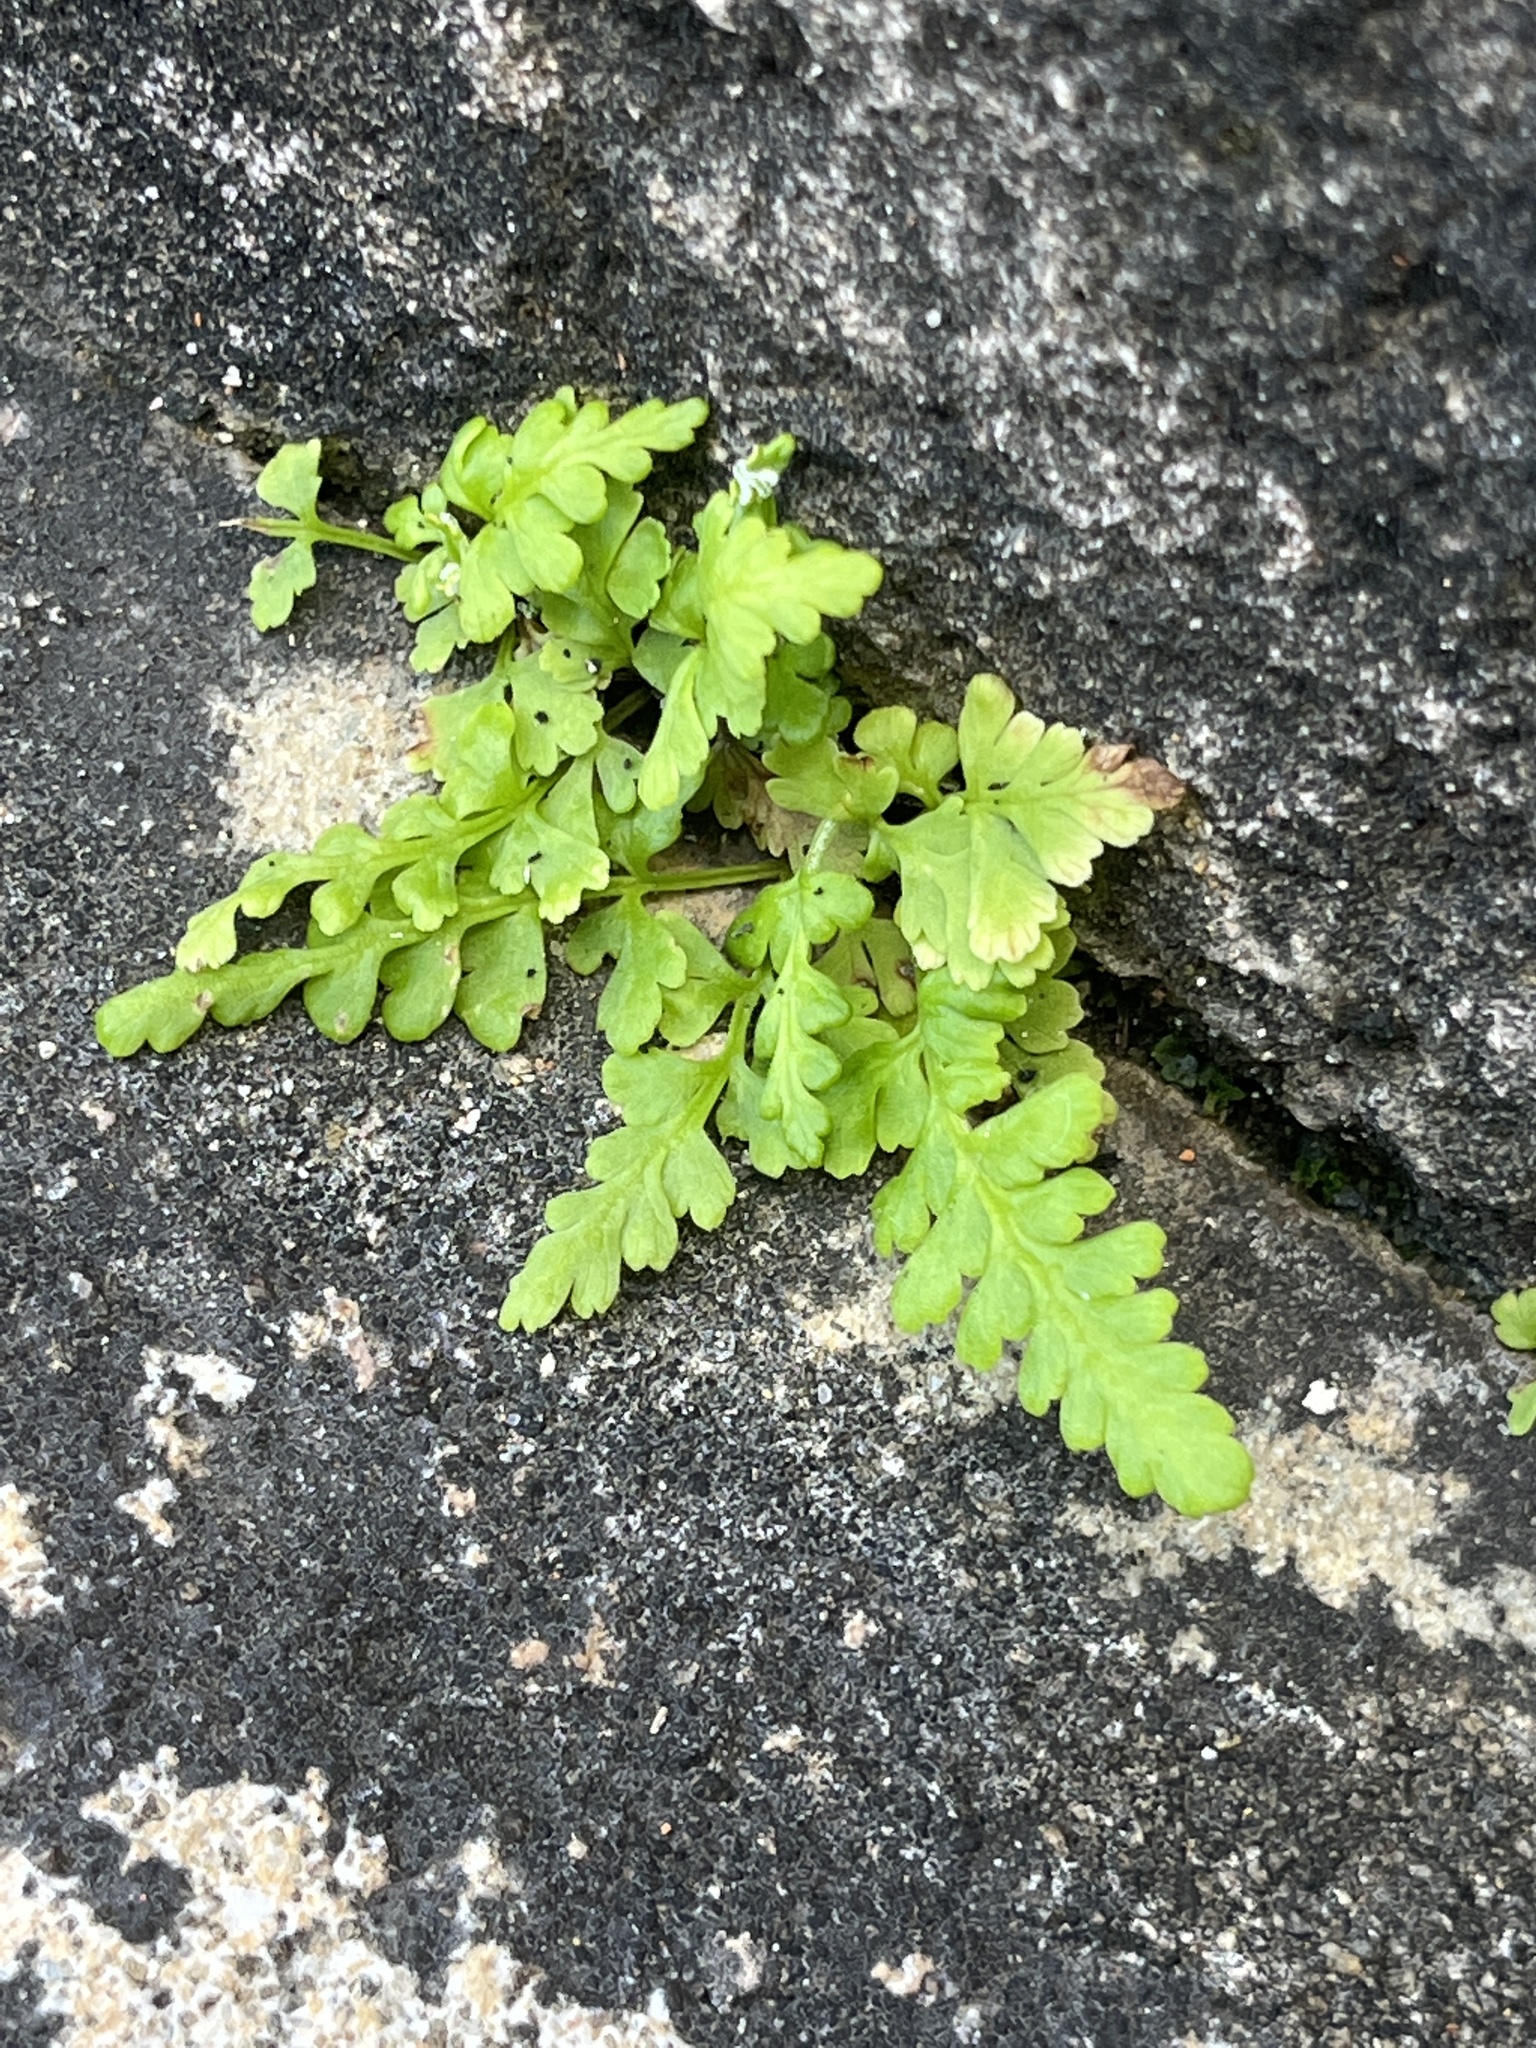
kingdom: Plantae
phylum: Tracheophyta
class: Polypodiopsida
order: Polypodiales
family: Pteridaceae
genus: Pityrogramma
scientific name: Pityrogramma chrysophylla
